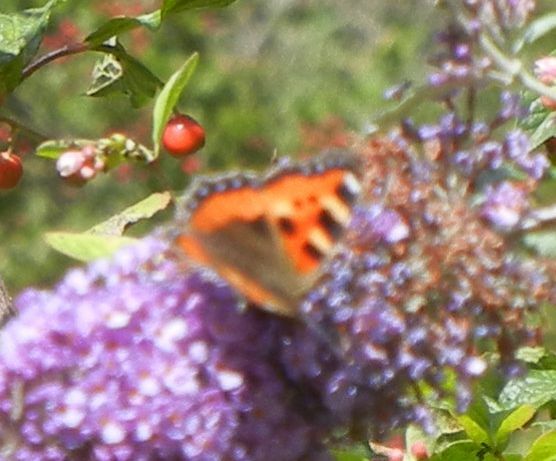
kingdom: Animalia
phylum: Arthropoda
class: Insecta
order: Lepidoptera
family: Nymphalidae
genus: Aglais
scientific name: Aglais urticae
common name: Small tortoiseshell
